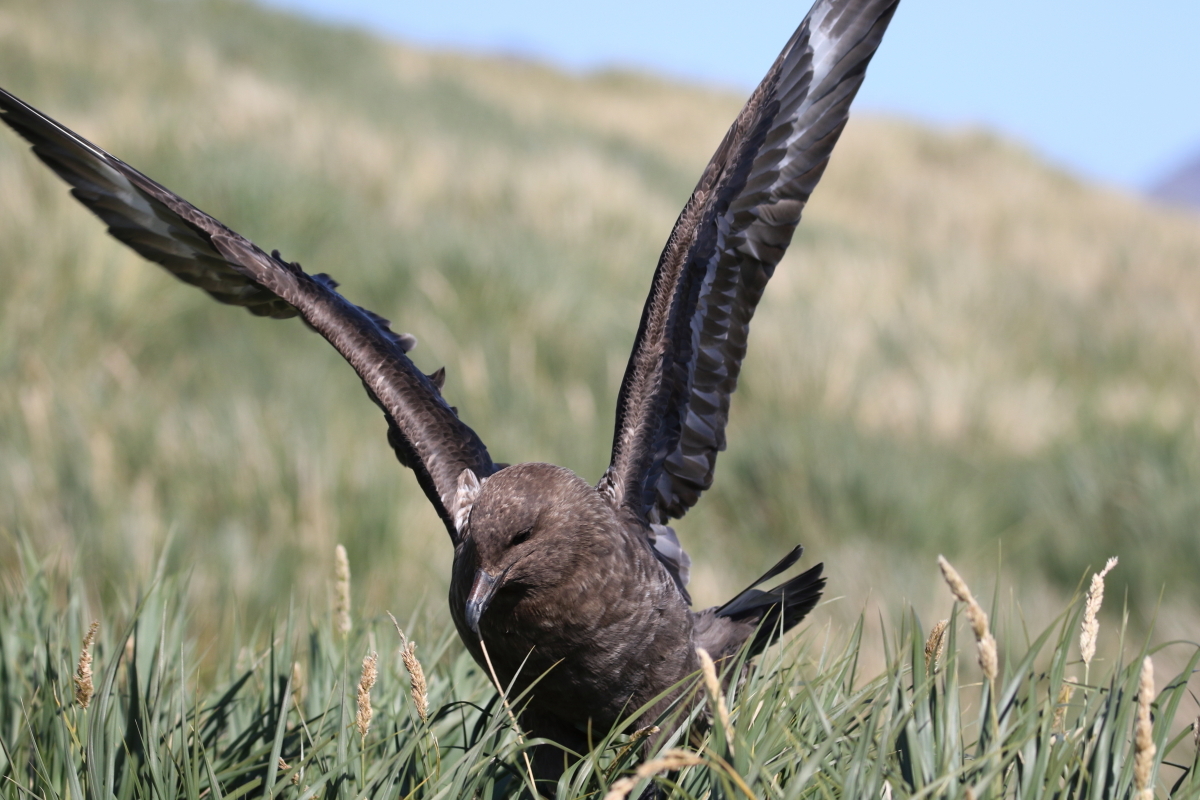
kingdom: Animalia
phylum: Chordata
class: Aves
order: Charadriiformes
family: Stercorariidae
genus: Stercorarius
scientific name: Stercorarius antarcticus
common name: Brown skua
